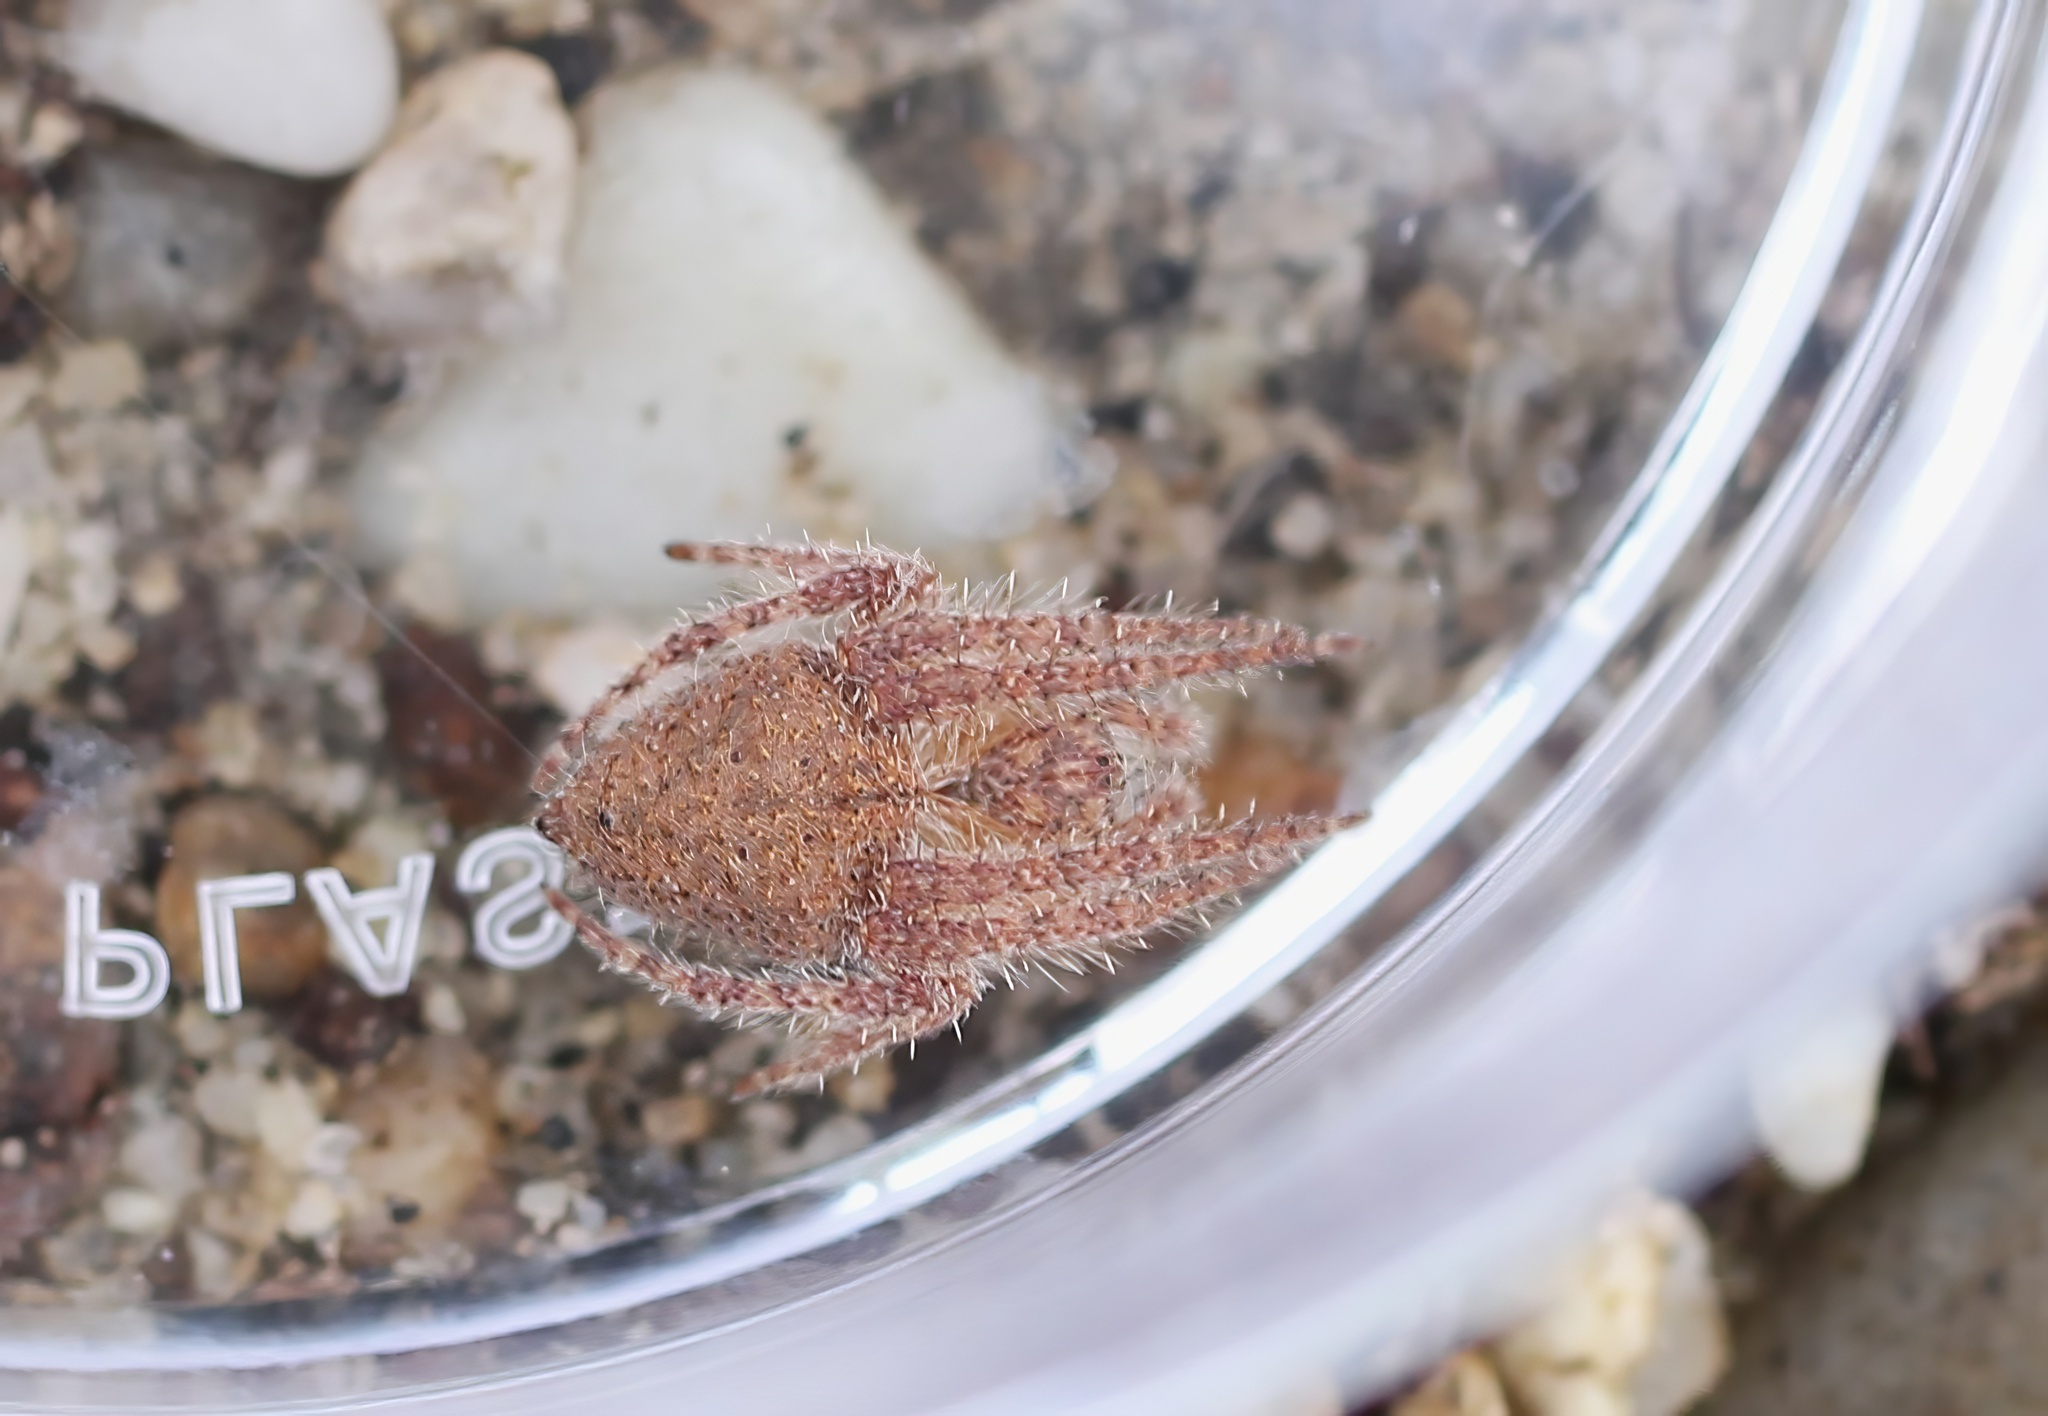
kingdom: Animalia
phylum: Arthropoda
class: Arachnida
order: Araneae
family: Araneidae
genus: Eriophora
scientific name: Eriophora edax
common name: Orb weavers
